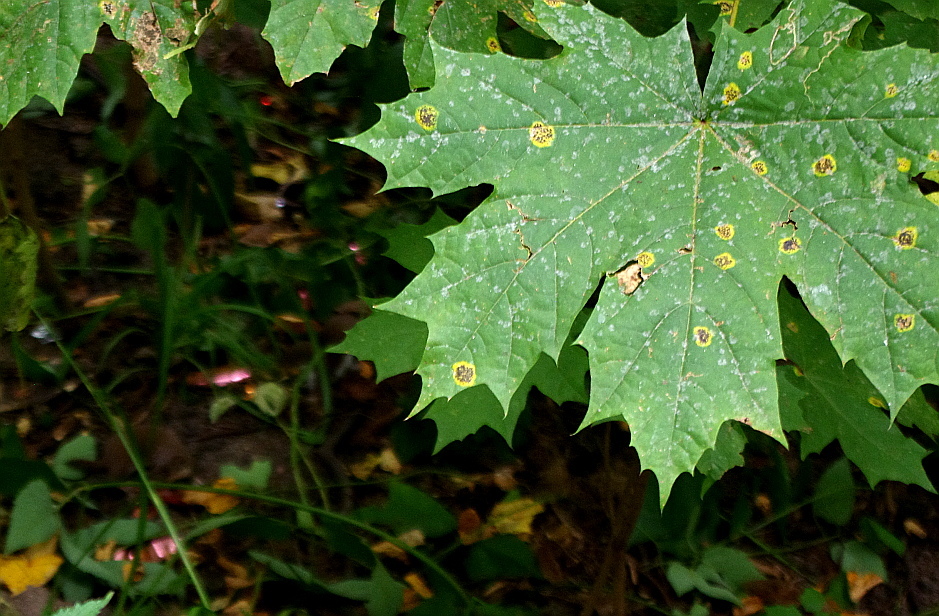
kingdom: Plantae
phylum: Tracheophyta
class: Magnoliopsida
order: Sapindales
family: Sapindaceae
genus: Acer
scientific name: Acer platanoides
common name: Norway maple
